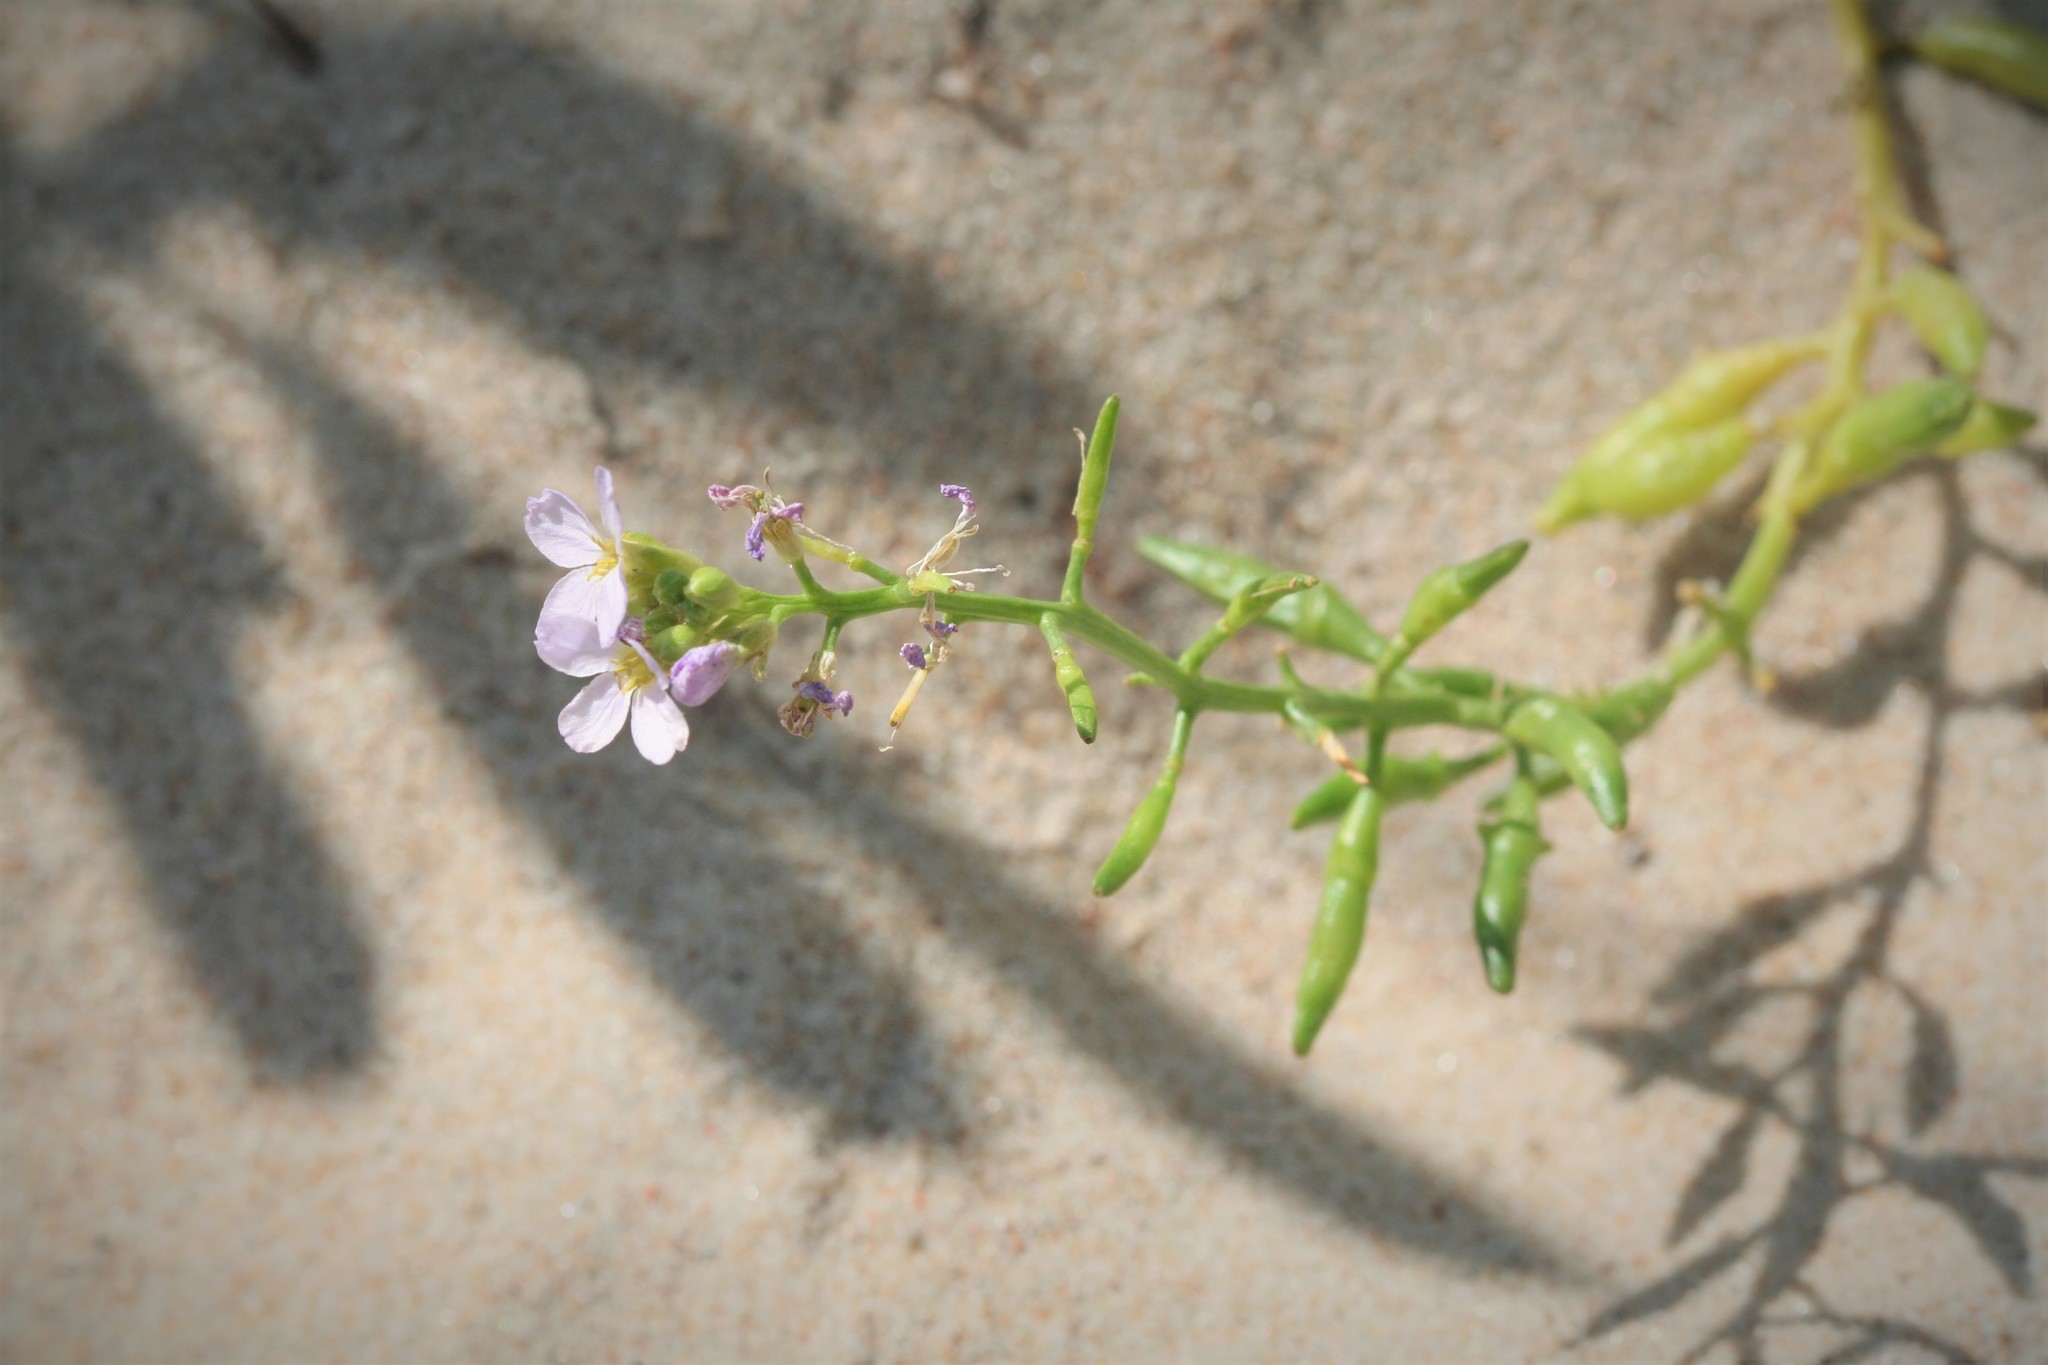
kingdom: Plantae
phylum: Tracheophyta
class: Magnoliopsida
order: Brassicales
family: Brassicaceae
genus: Cakile
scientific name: Cakile maritima
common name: Sea rocket
